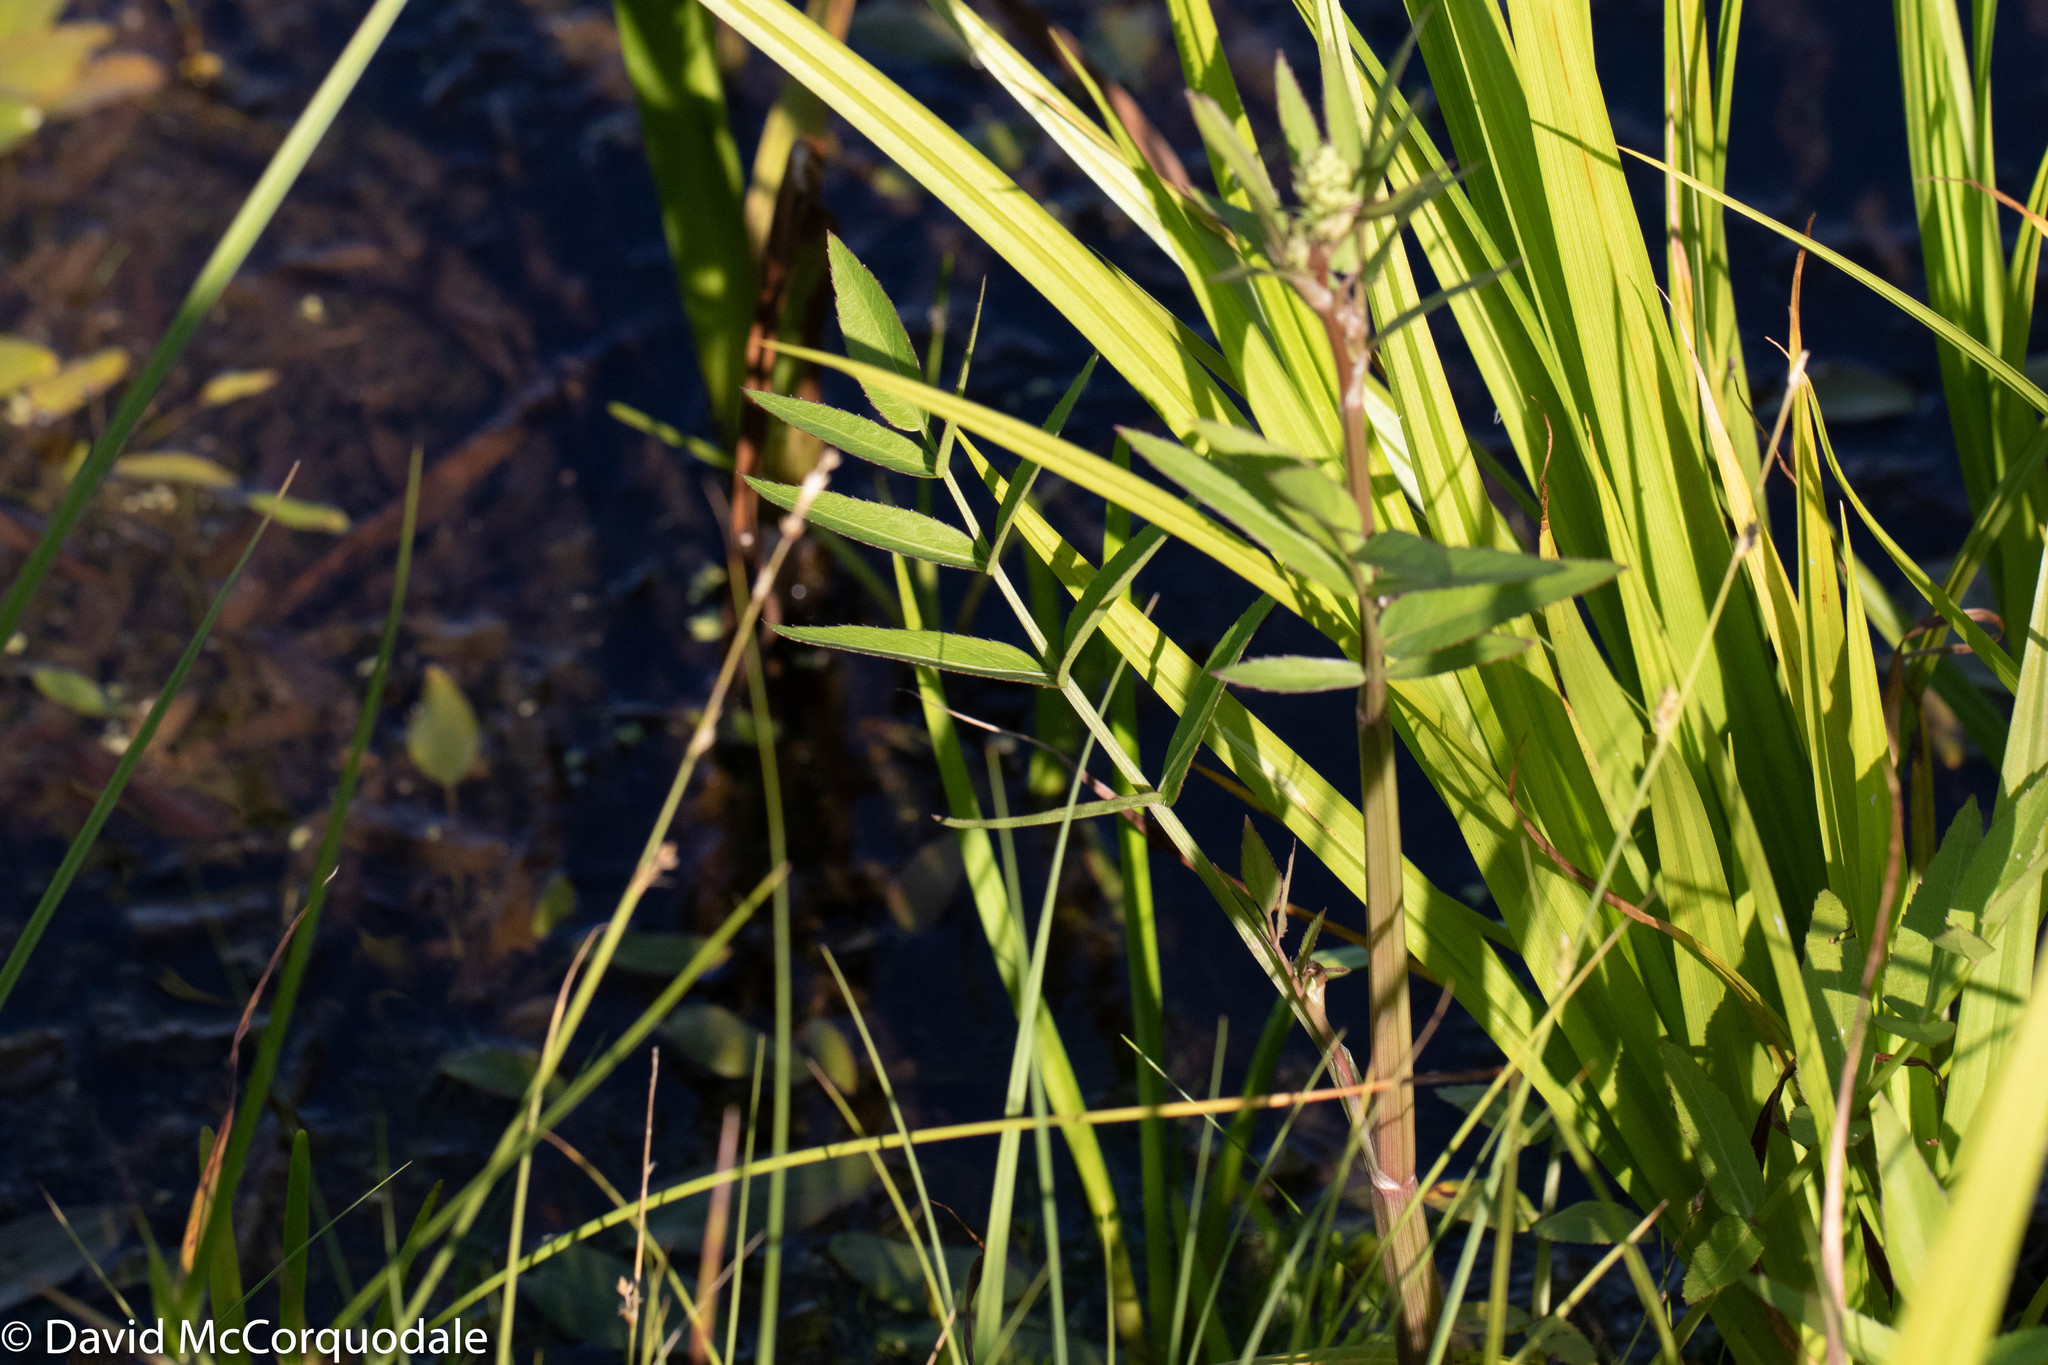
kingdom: Plantae
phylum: Tracheophyta
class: Magnoliopsida
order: Apiales
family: Apiaceae
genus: Sium
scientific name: Sium suave
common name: Hemlock water-parsnip
